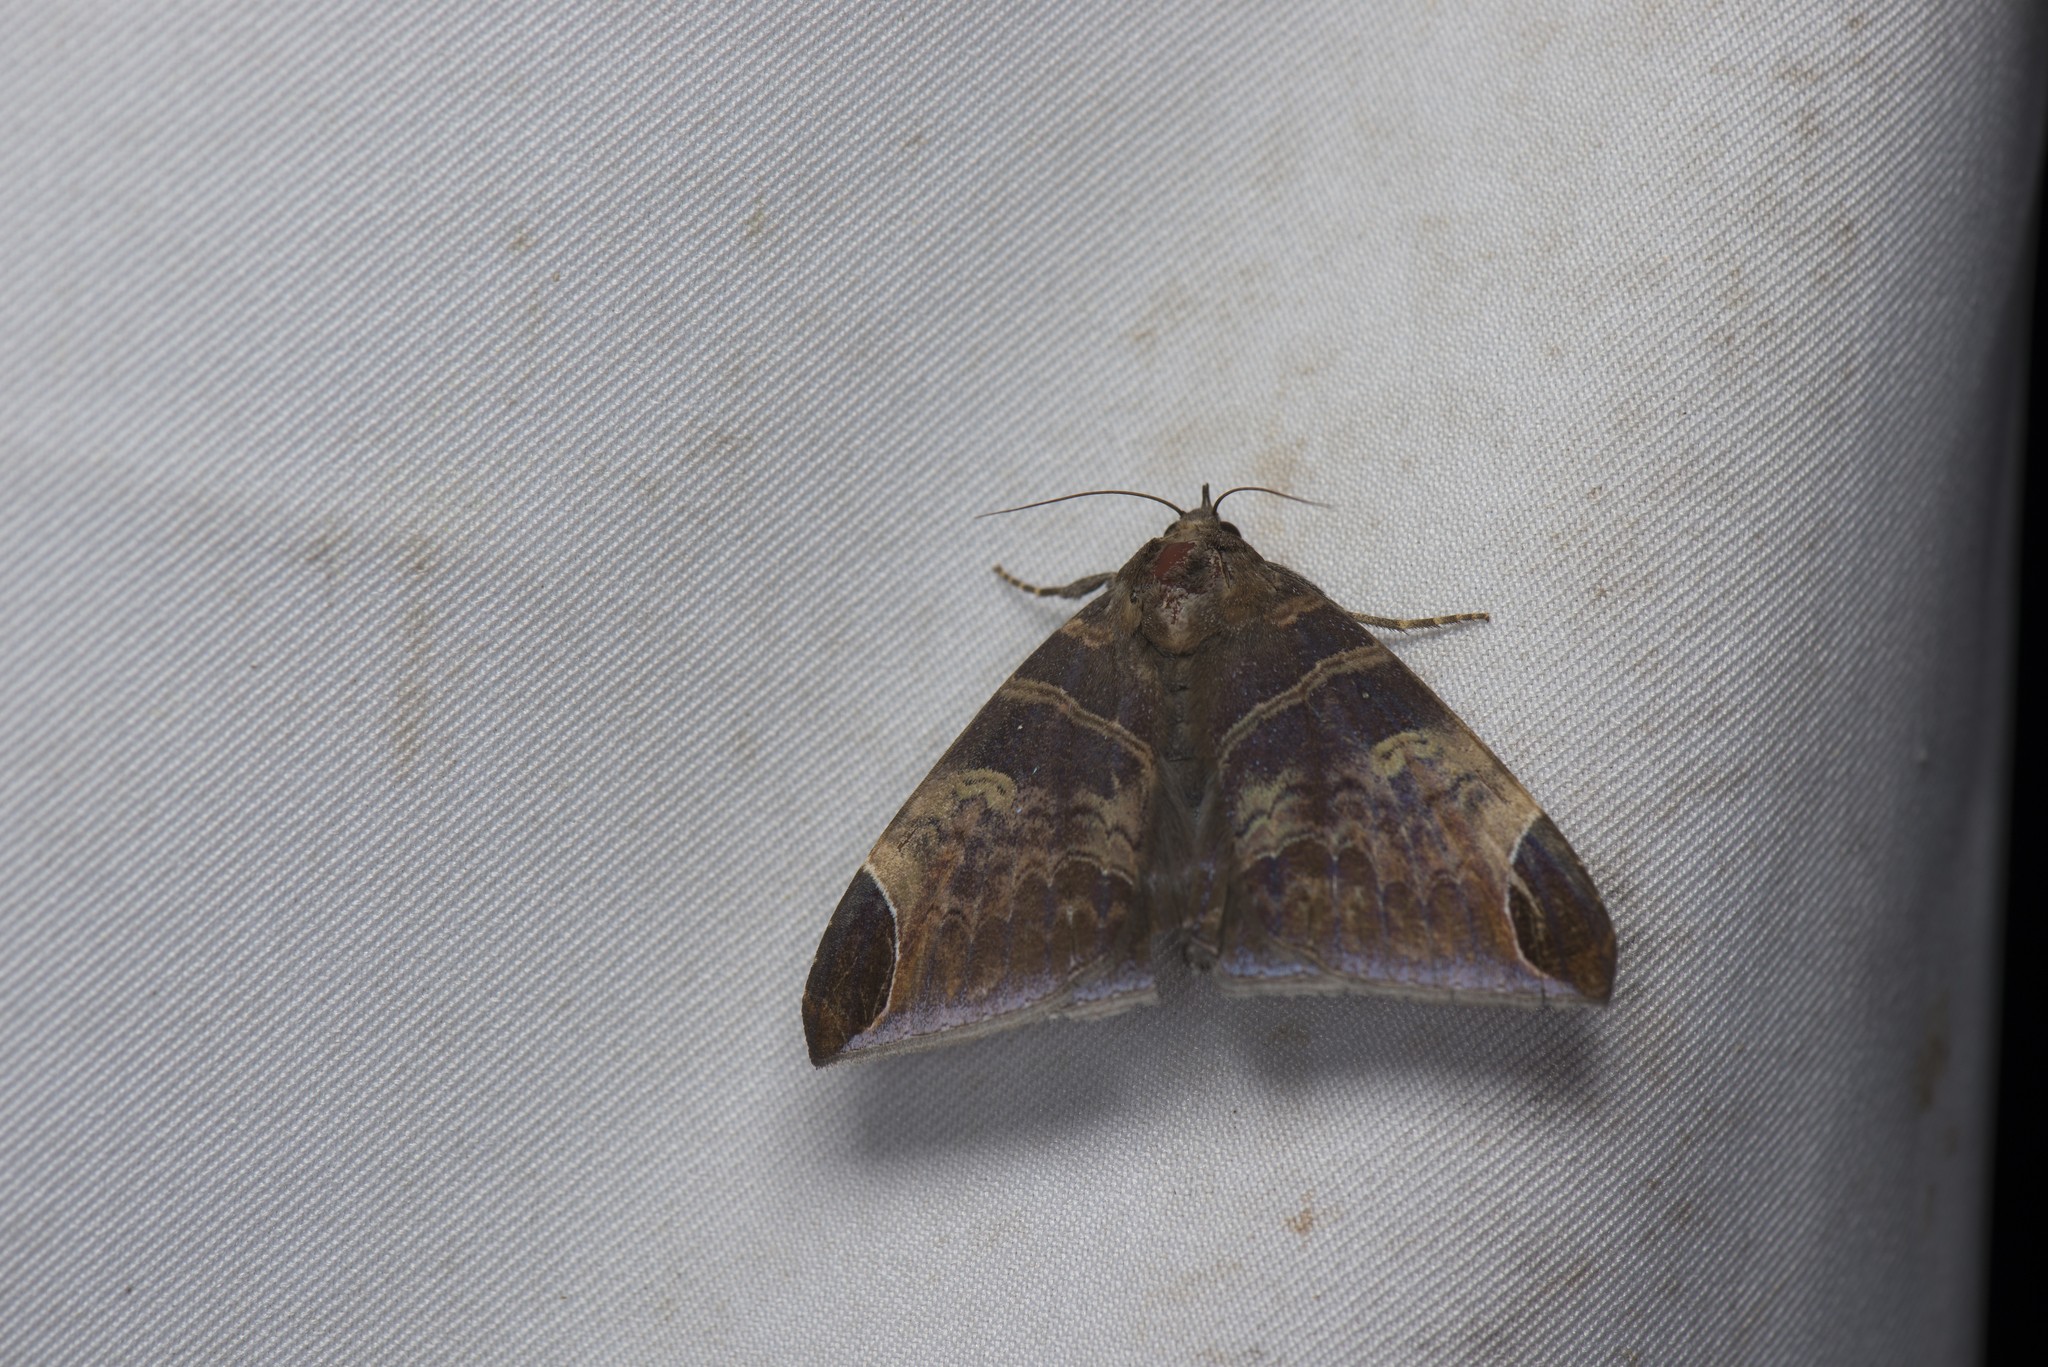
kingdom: Animalia
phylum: Arthropoda
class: Insecta
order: Lepidoptera
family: Erebidae
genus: Pindara
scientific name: Pindara illibata
